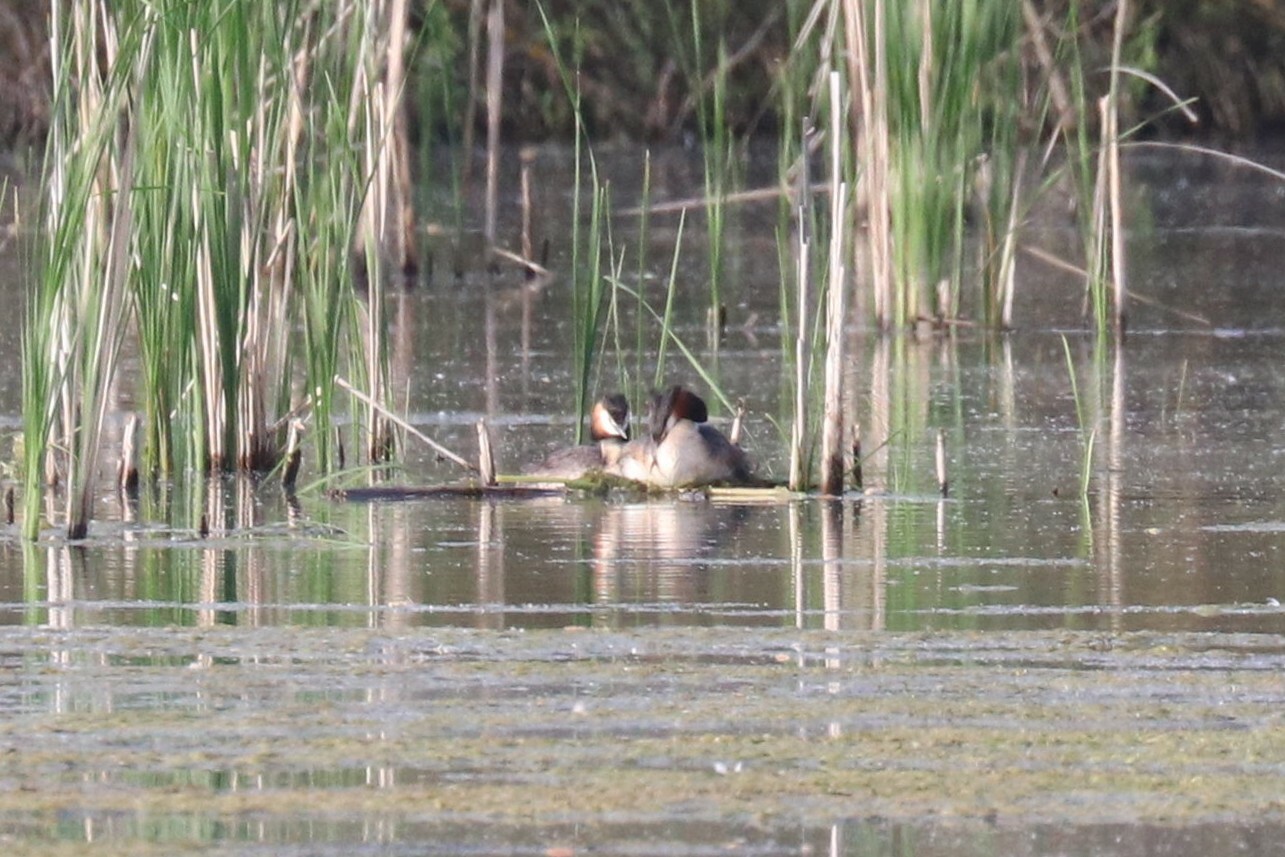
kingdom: Animalia
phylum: Chordata
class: Aves
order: Podicipediformes
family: Podicipedidae
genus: Podiceps
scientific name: Podiceps cristatus
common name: Great crested grebe
